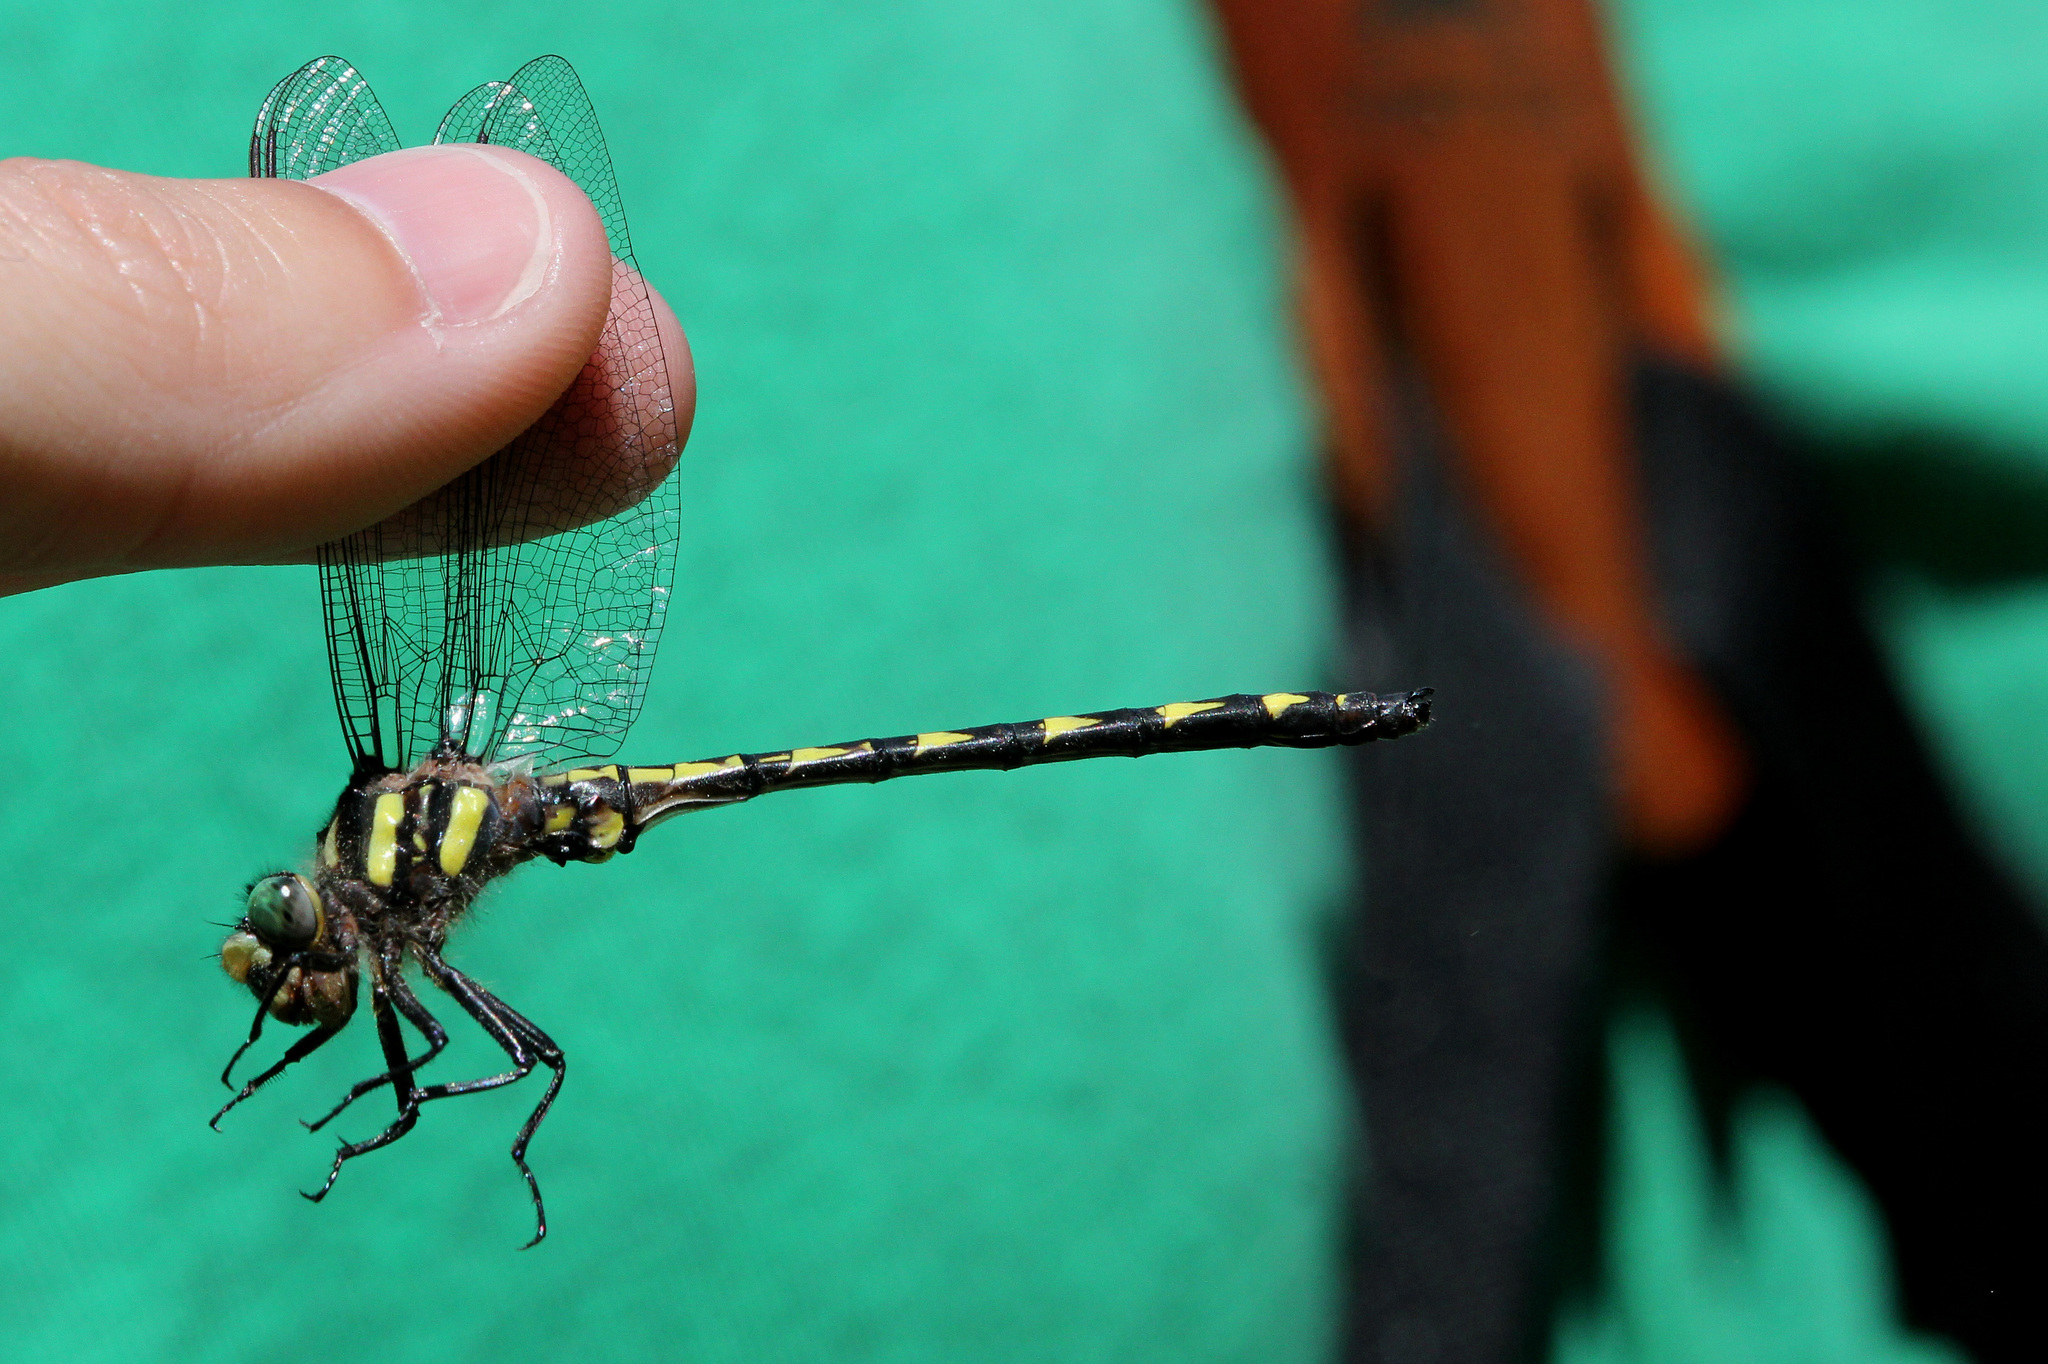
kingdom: Animalia
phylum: Arthropoda
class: Insecta
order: Odonata
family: Cordulegastridae
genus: Cordulegaster
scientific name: Cordulegaster diastatops
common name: Delta-spotted spiketail
